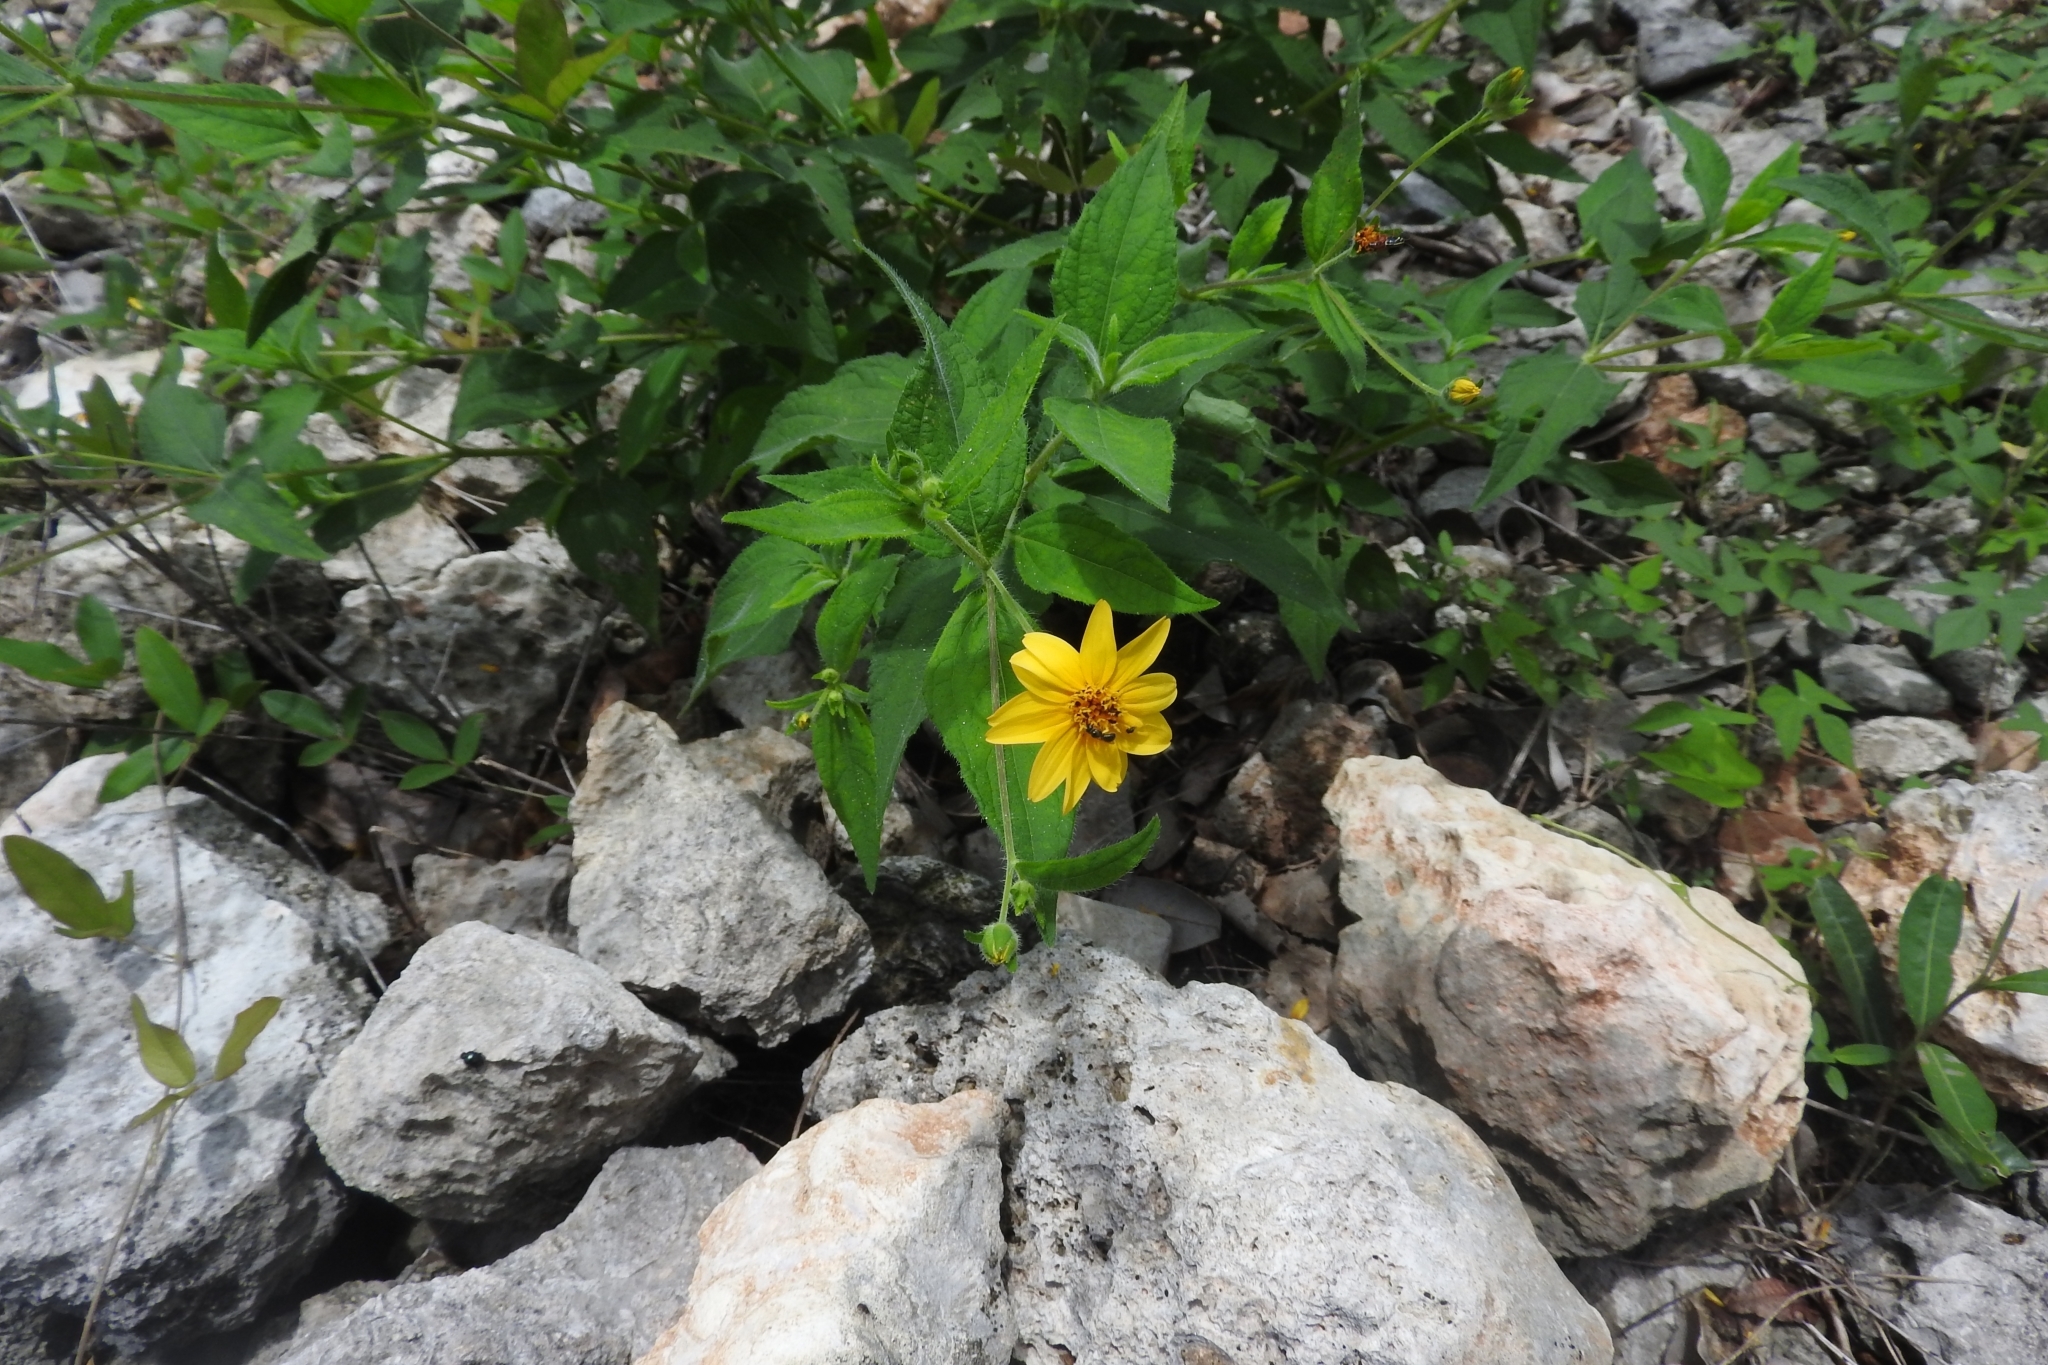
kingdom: Plantae
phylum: Tracheophyta
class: Magnoliopsida
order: Asterales
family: Asteraceae
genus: Wedelia
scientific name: Wedelia acapulcensis
